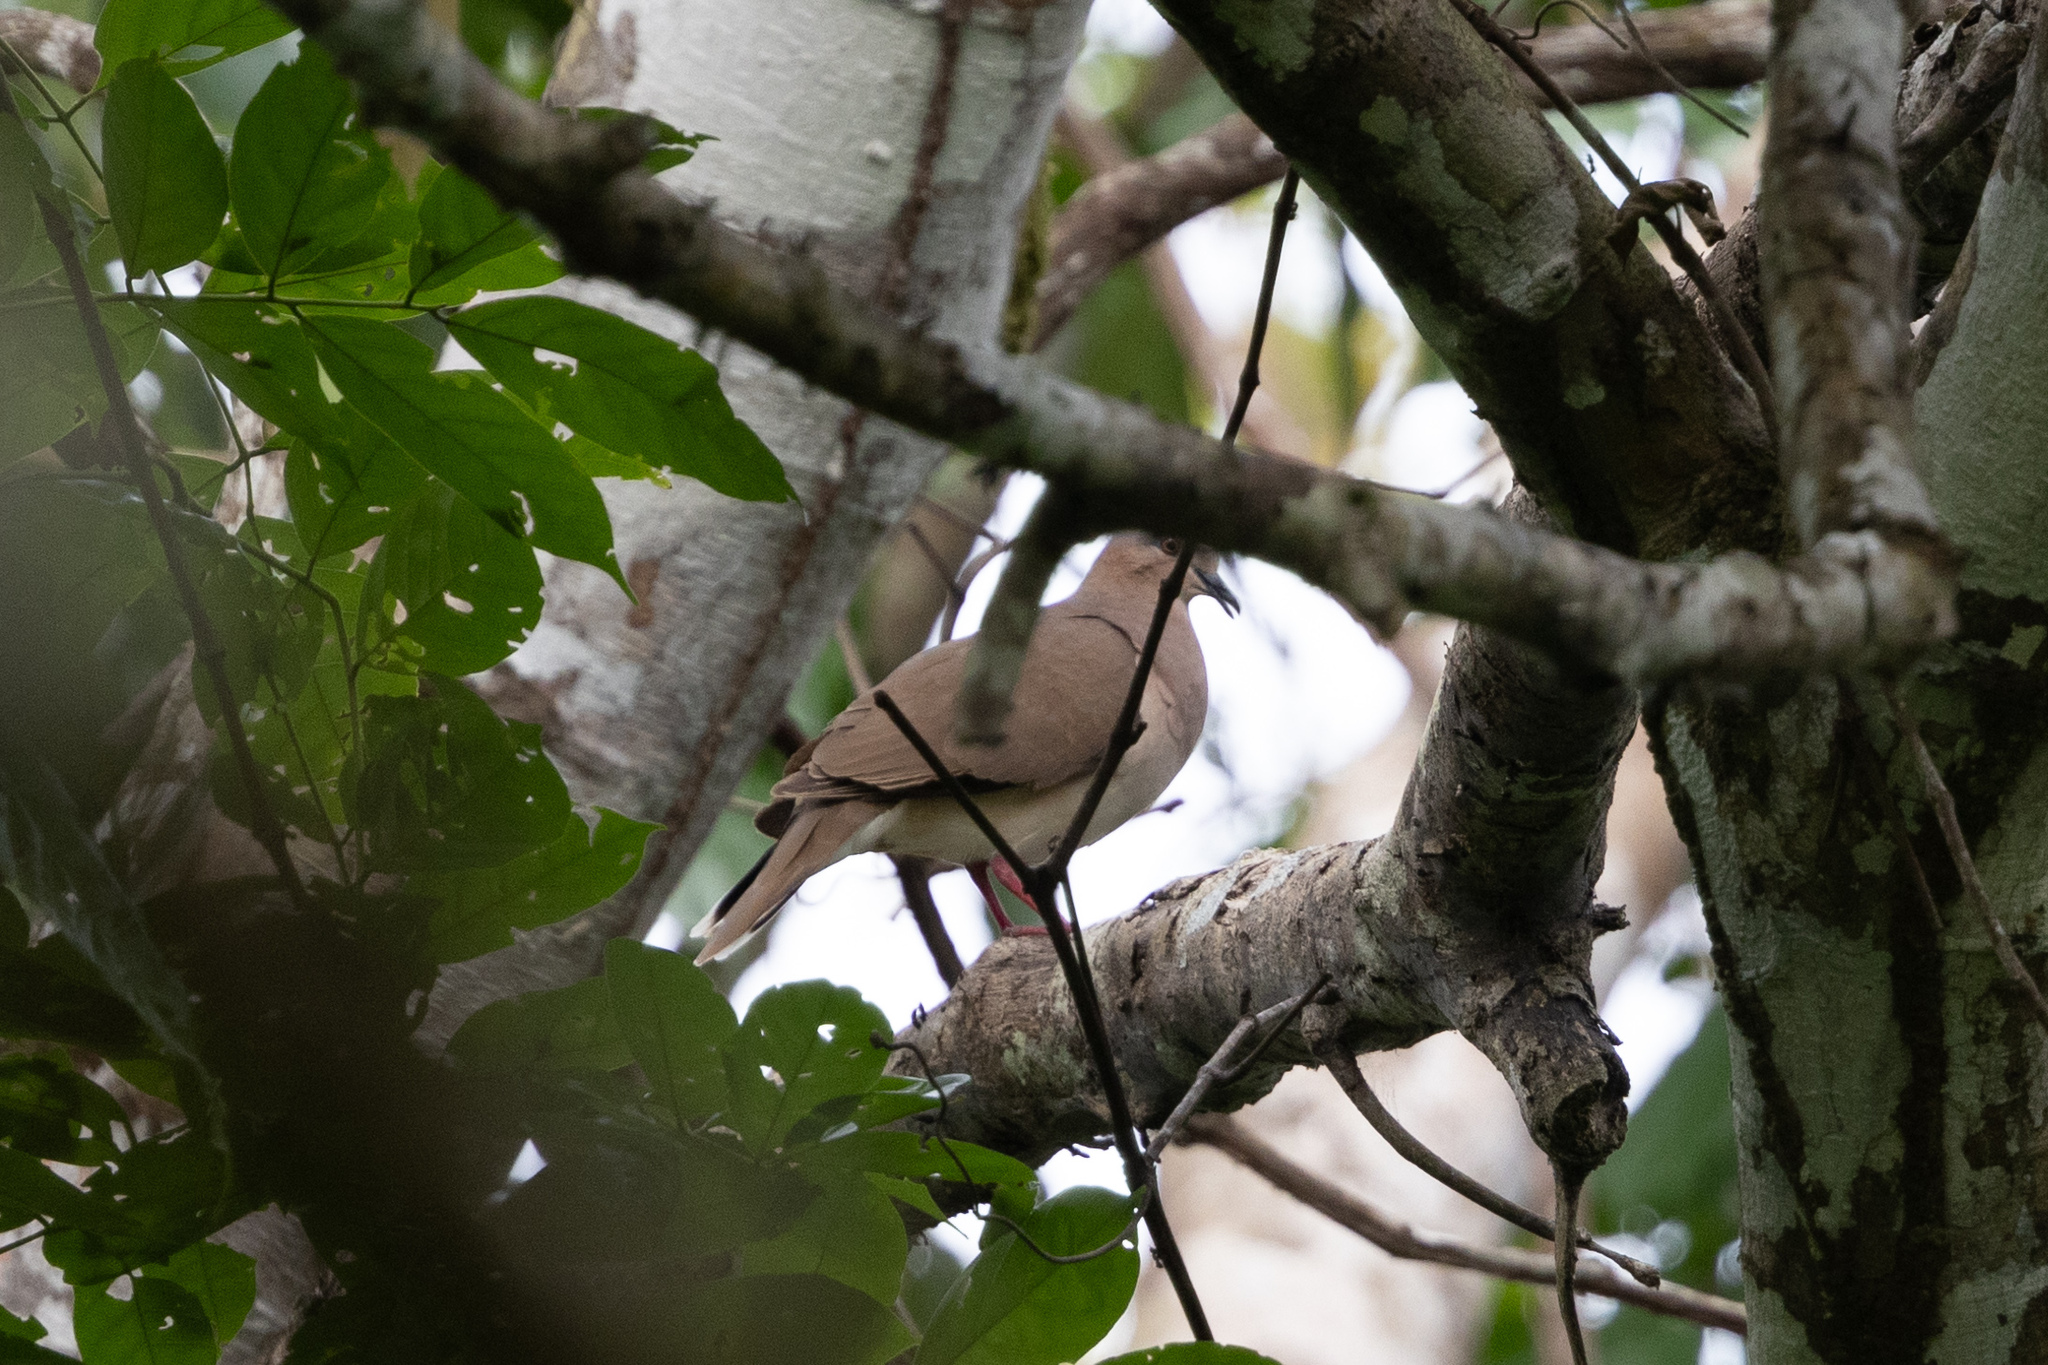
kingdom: Animalia
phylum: Chordata
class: Aves
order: Columbiformes
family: Columbidae
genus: Leptotila
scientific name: Leptotila verreauxi
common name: White-tipped dove
